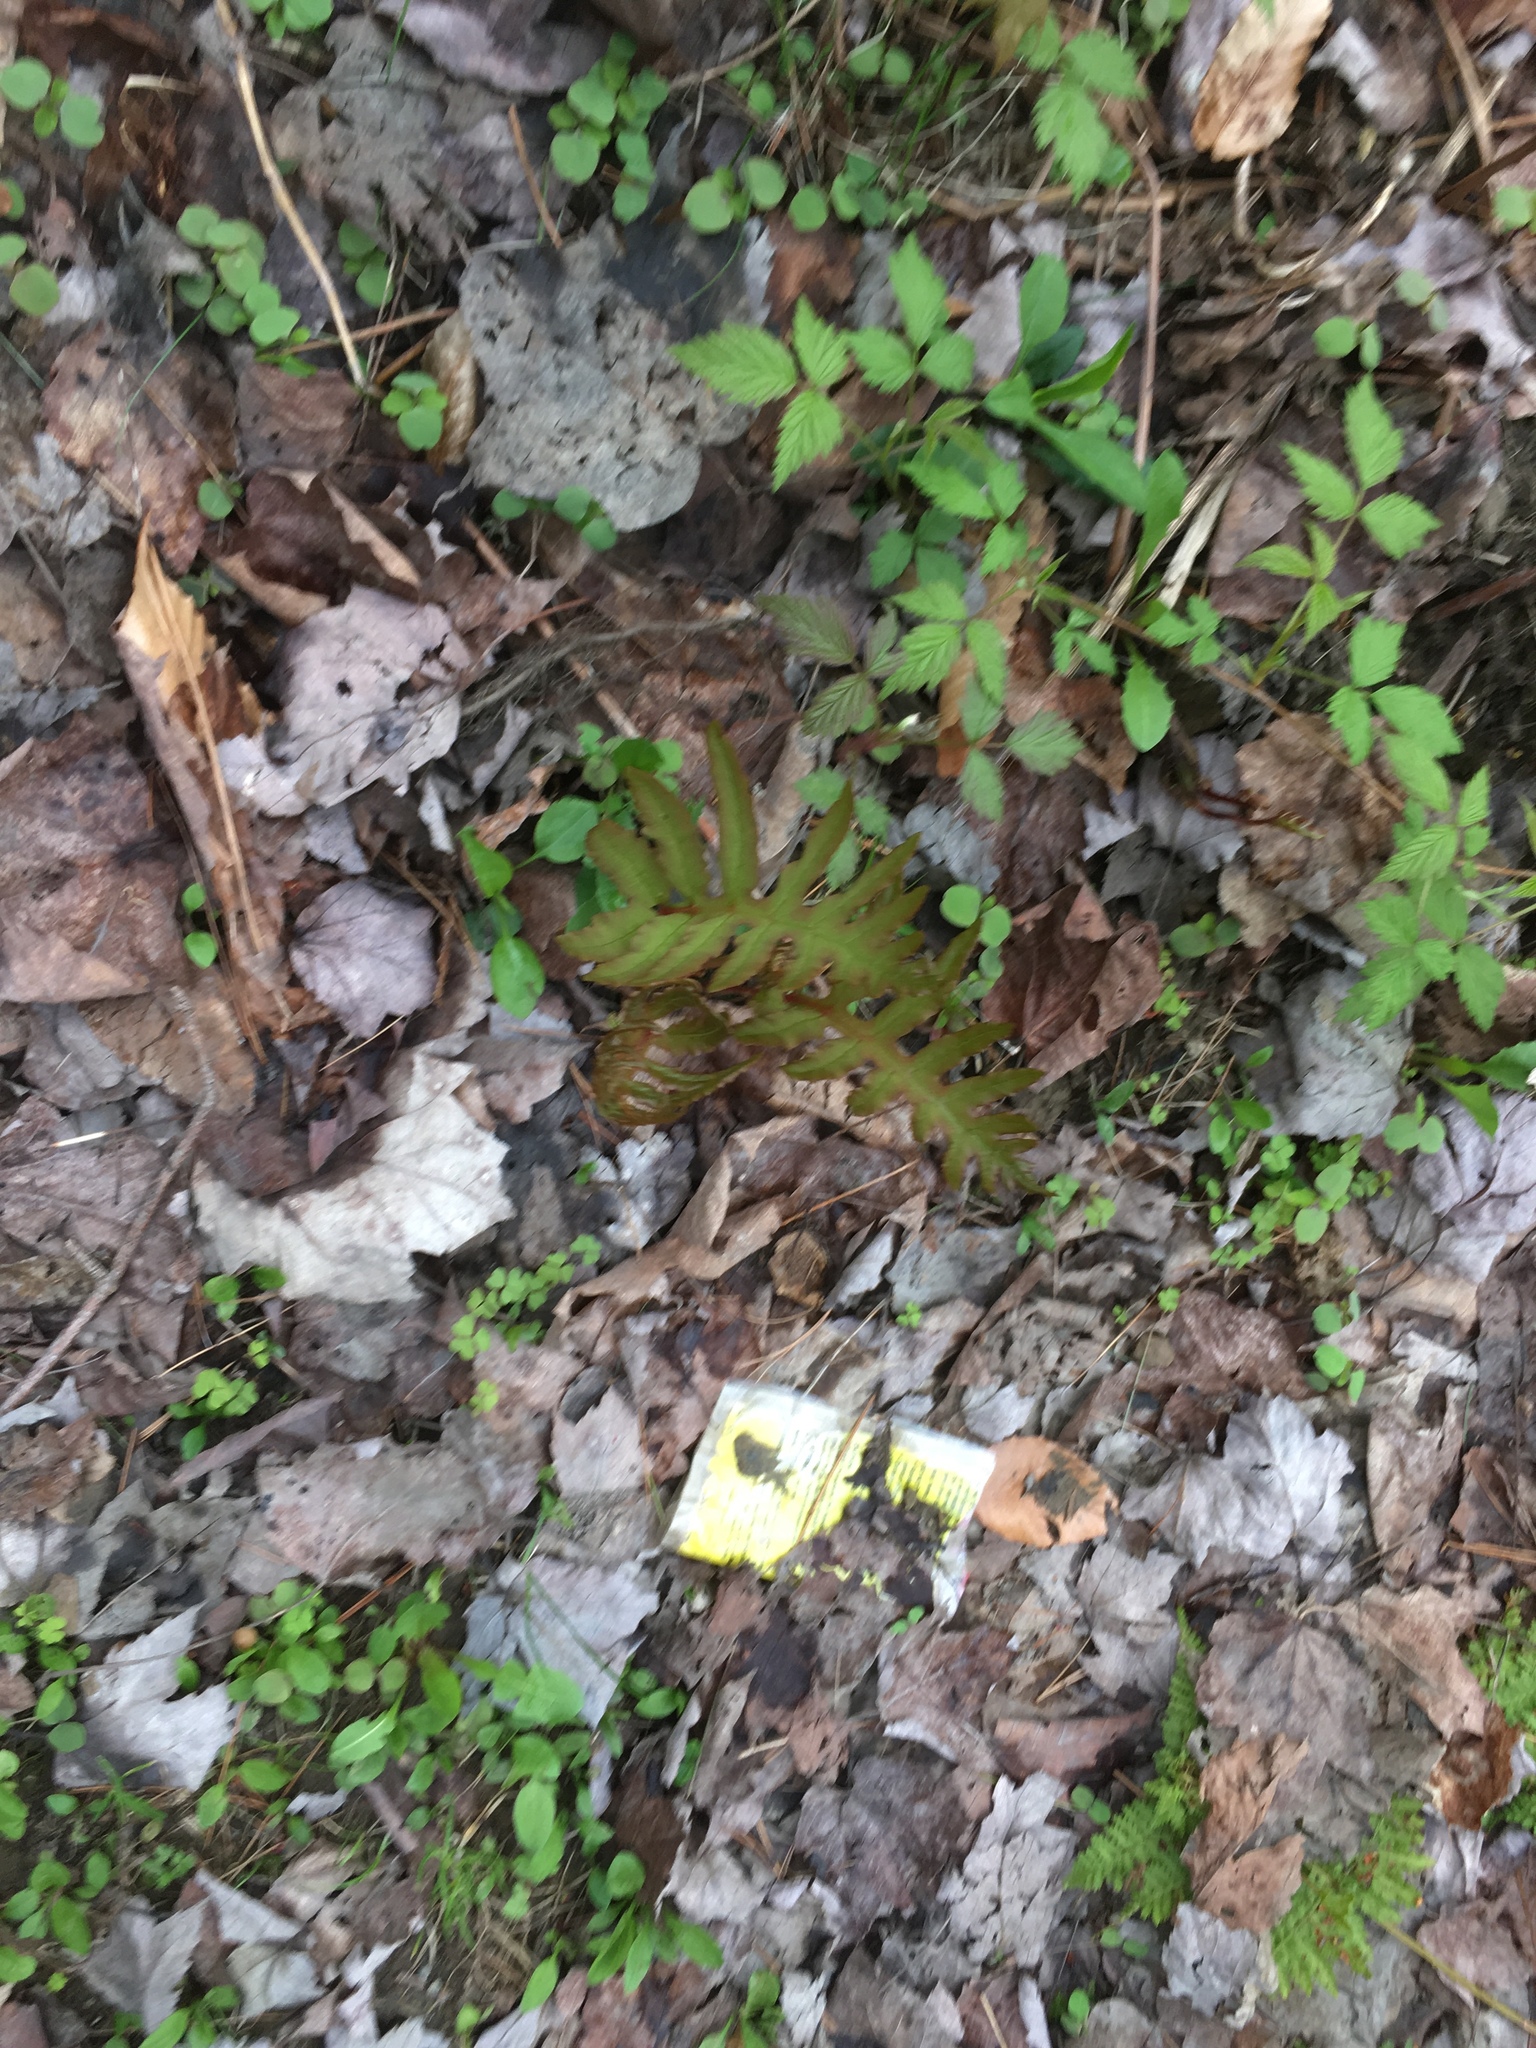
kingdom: Plantae
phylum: Tracheophyta
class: Polypodiopsida
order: Polypodiales
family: Onocleaceae
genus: Onoclea
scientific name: Onoclea sensibilis
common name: Sensitive fern
